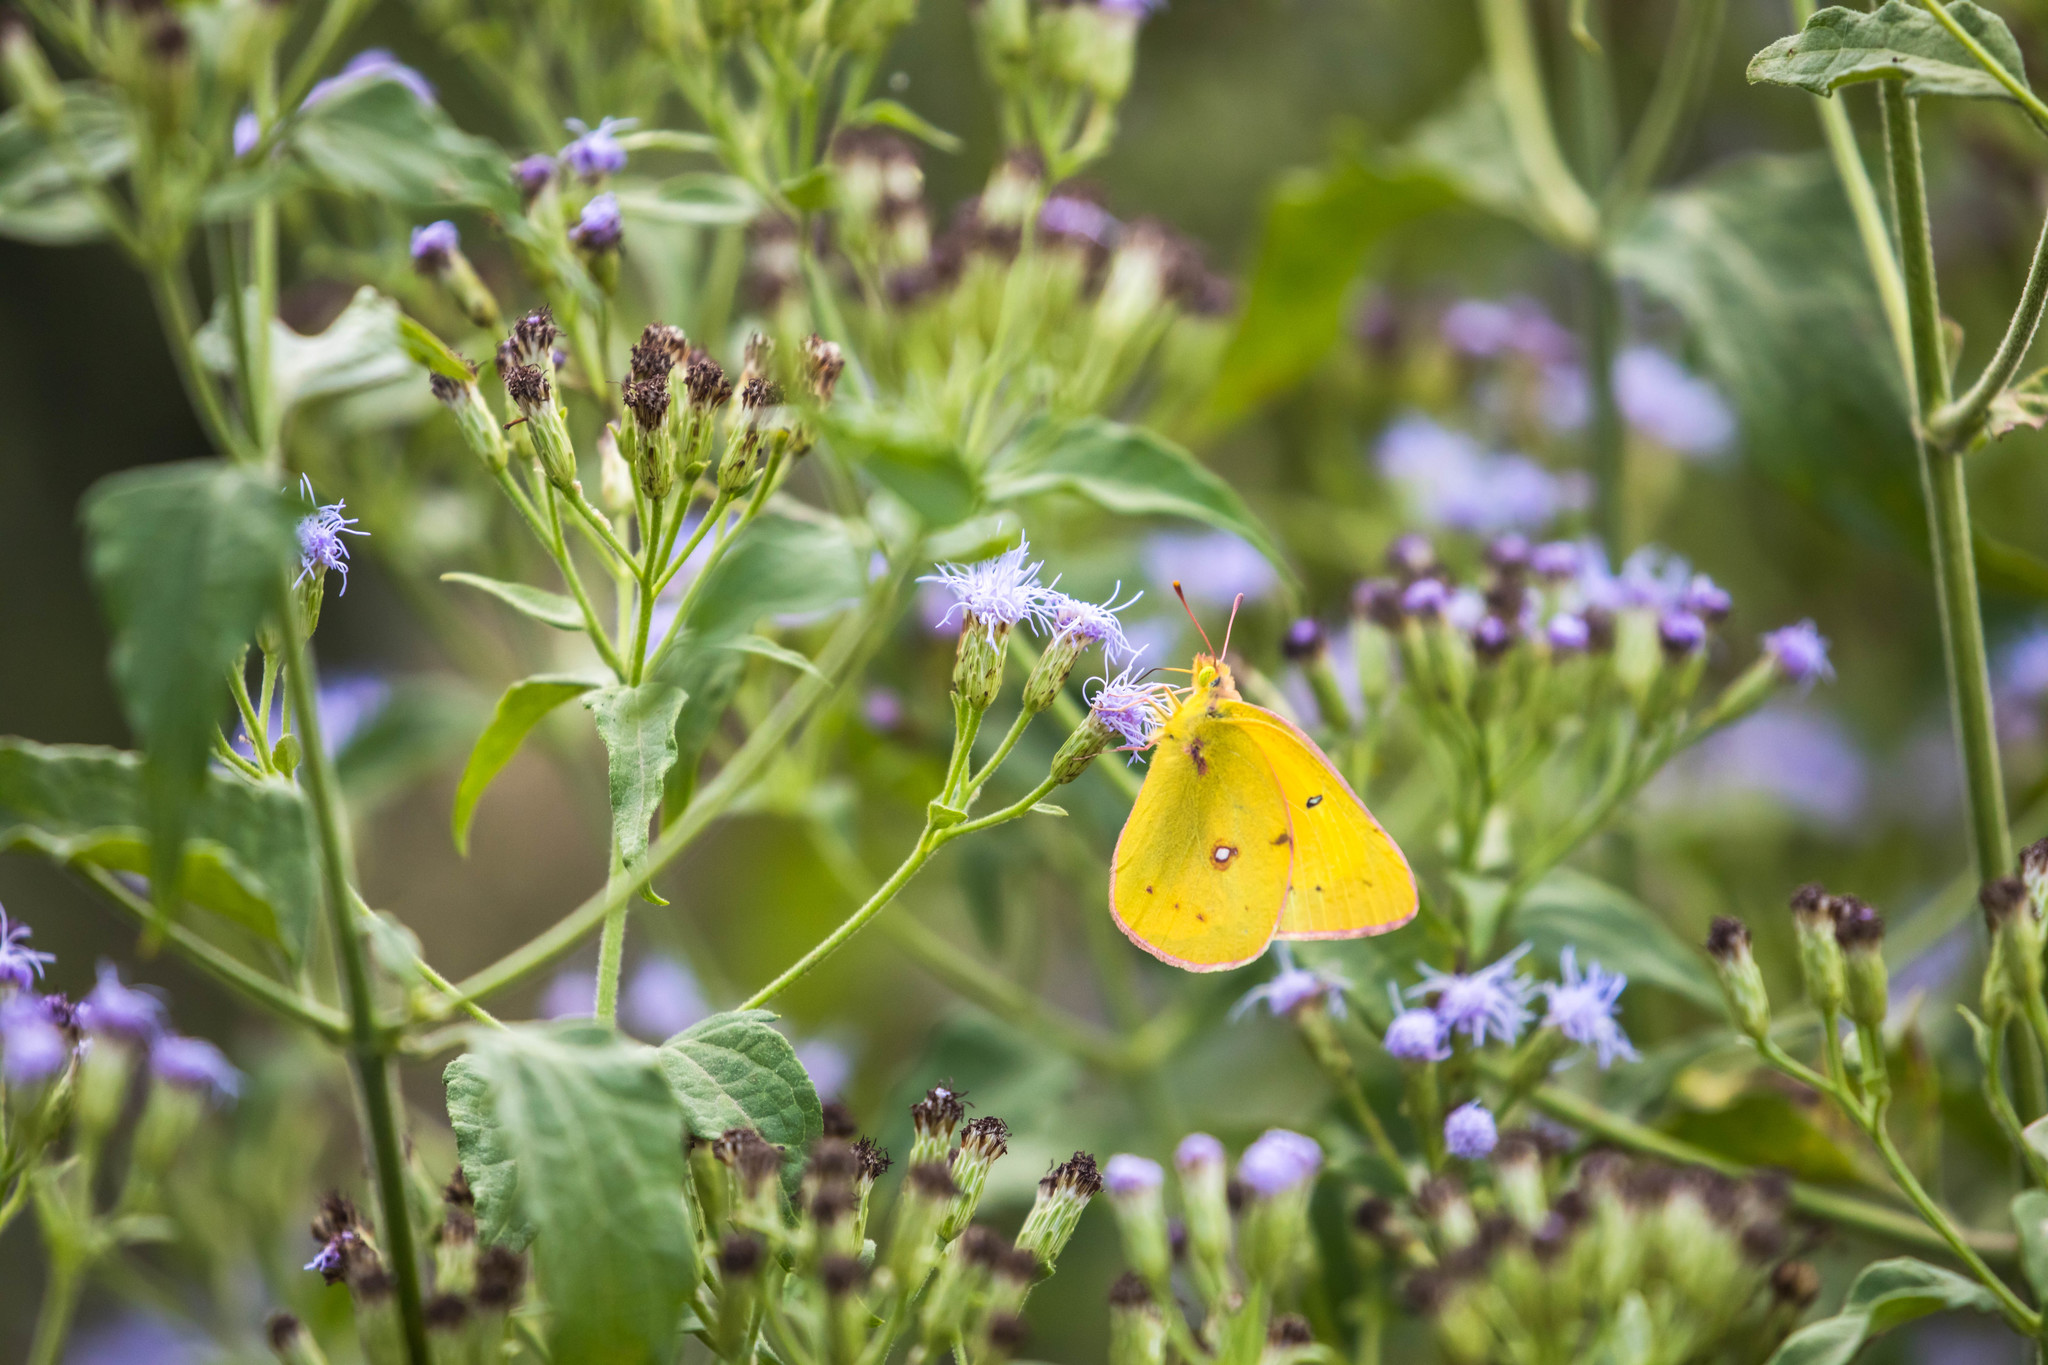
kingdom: Animalia
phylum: Arthropoda
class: Insecta
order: Lepidoptera
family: Pieridae
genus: Colias
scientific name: Colias eurytheme
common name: Alfalfa butterfly
